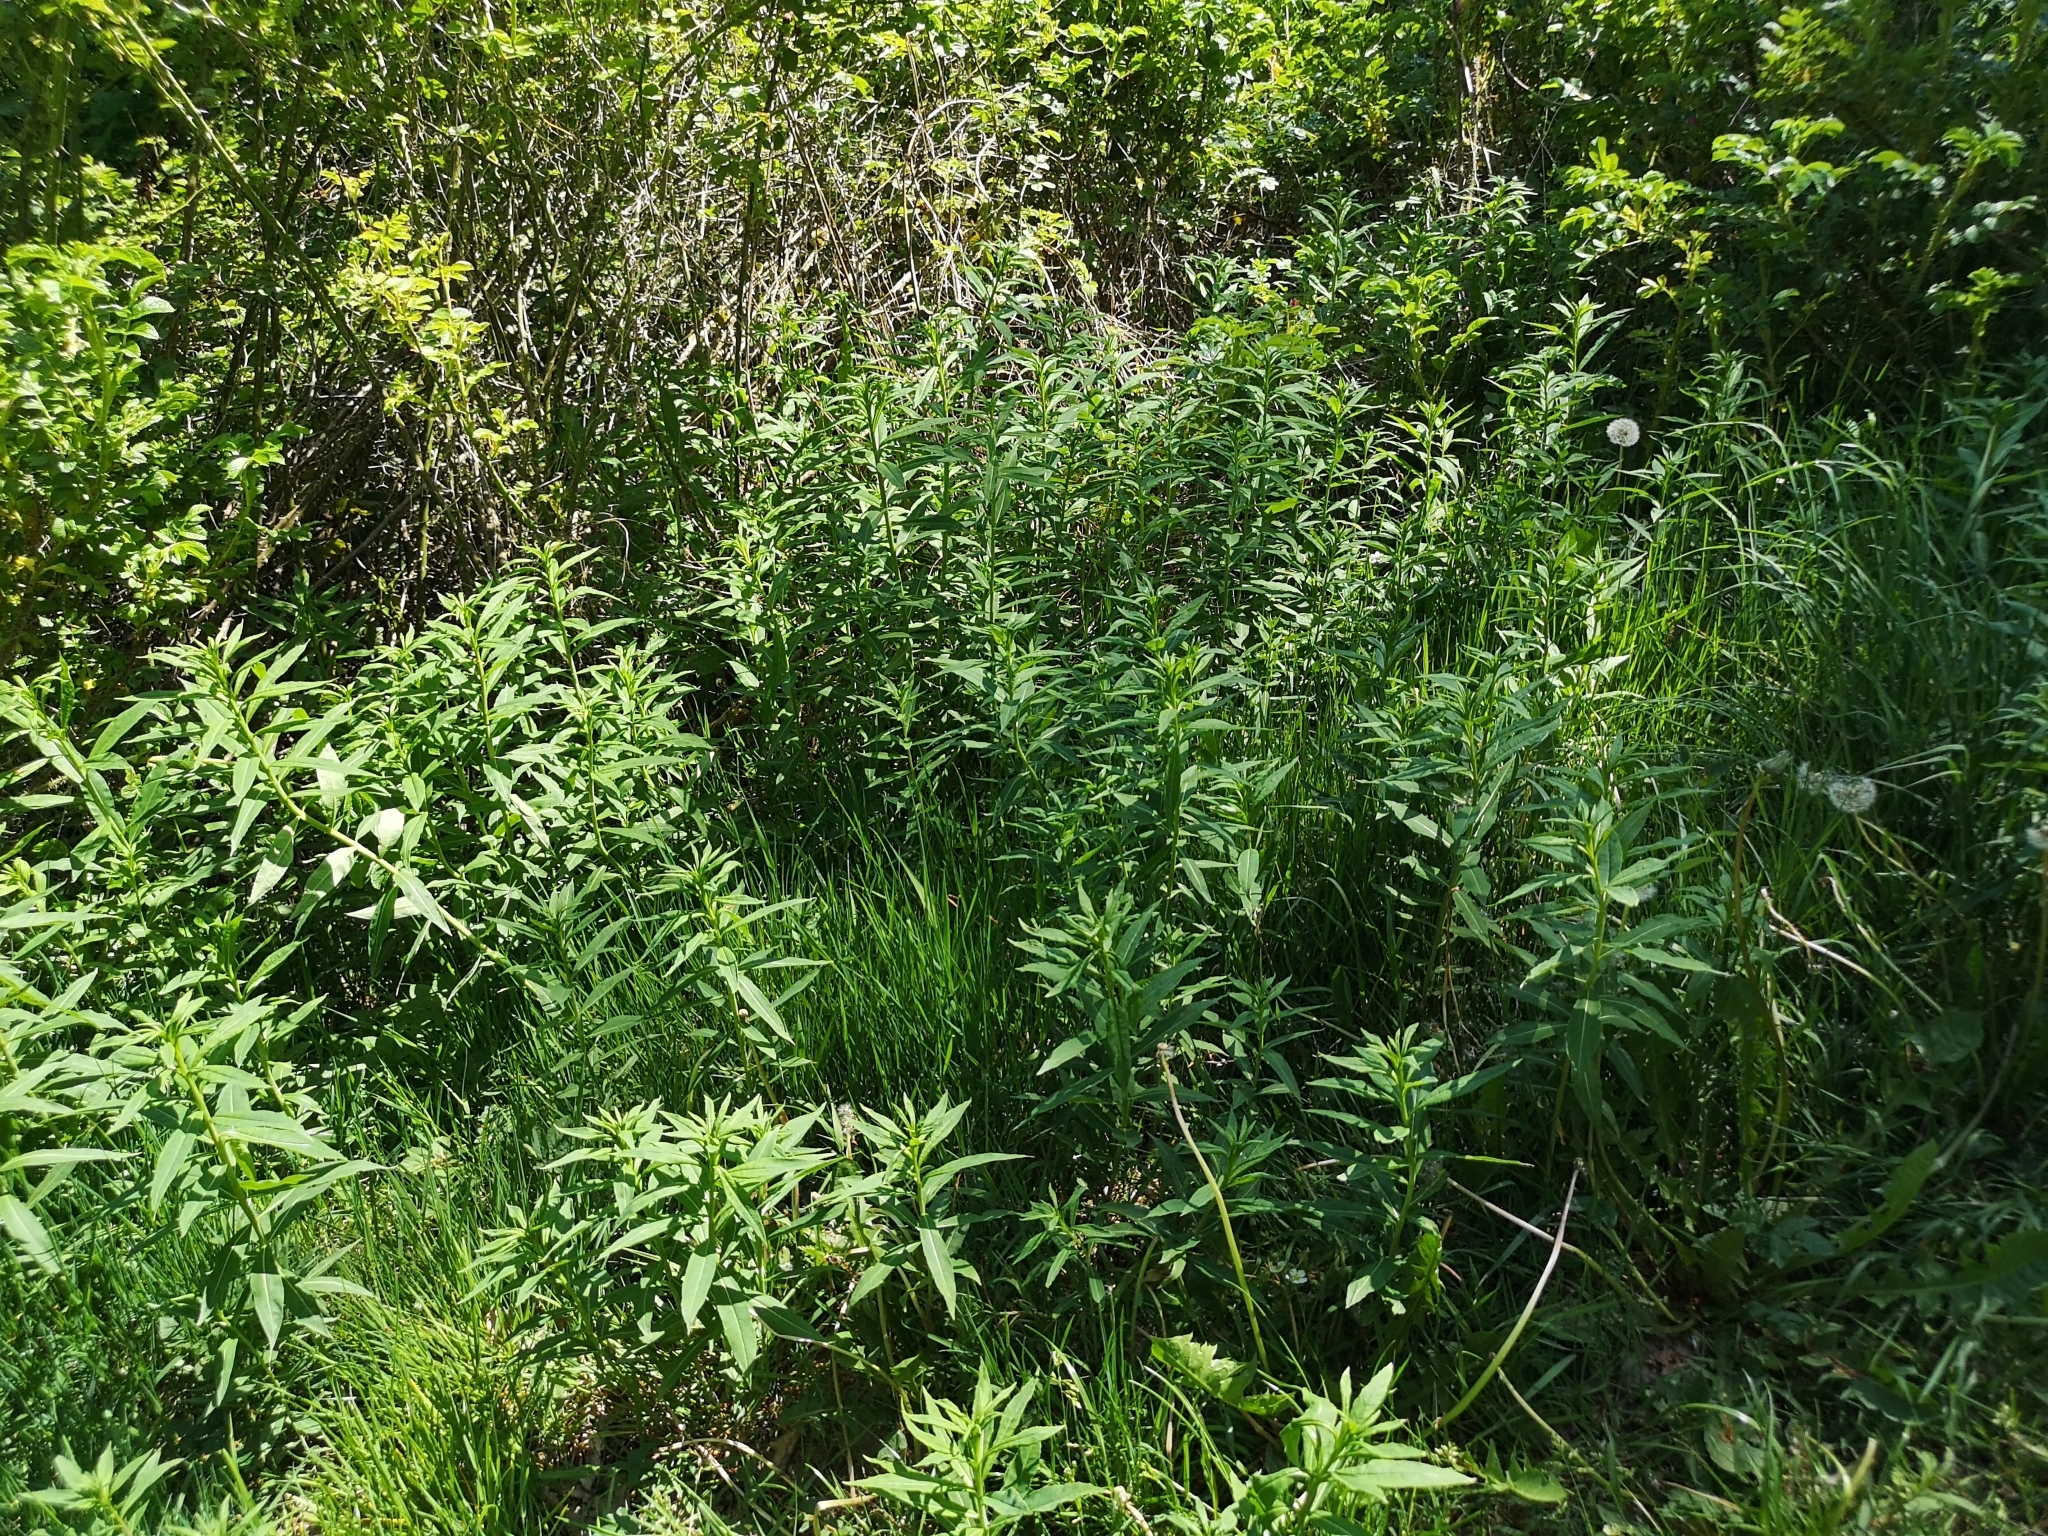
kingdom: Plantae
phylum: Tracheophyta
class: Magnoliopsida
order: Myrtales
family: Onagraceae
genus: Chamaenerion
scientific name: Chamaenerion angustifolium
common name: Fireweed
